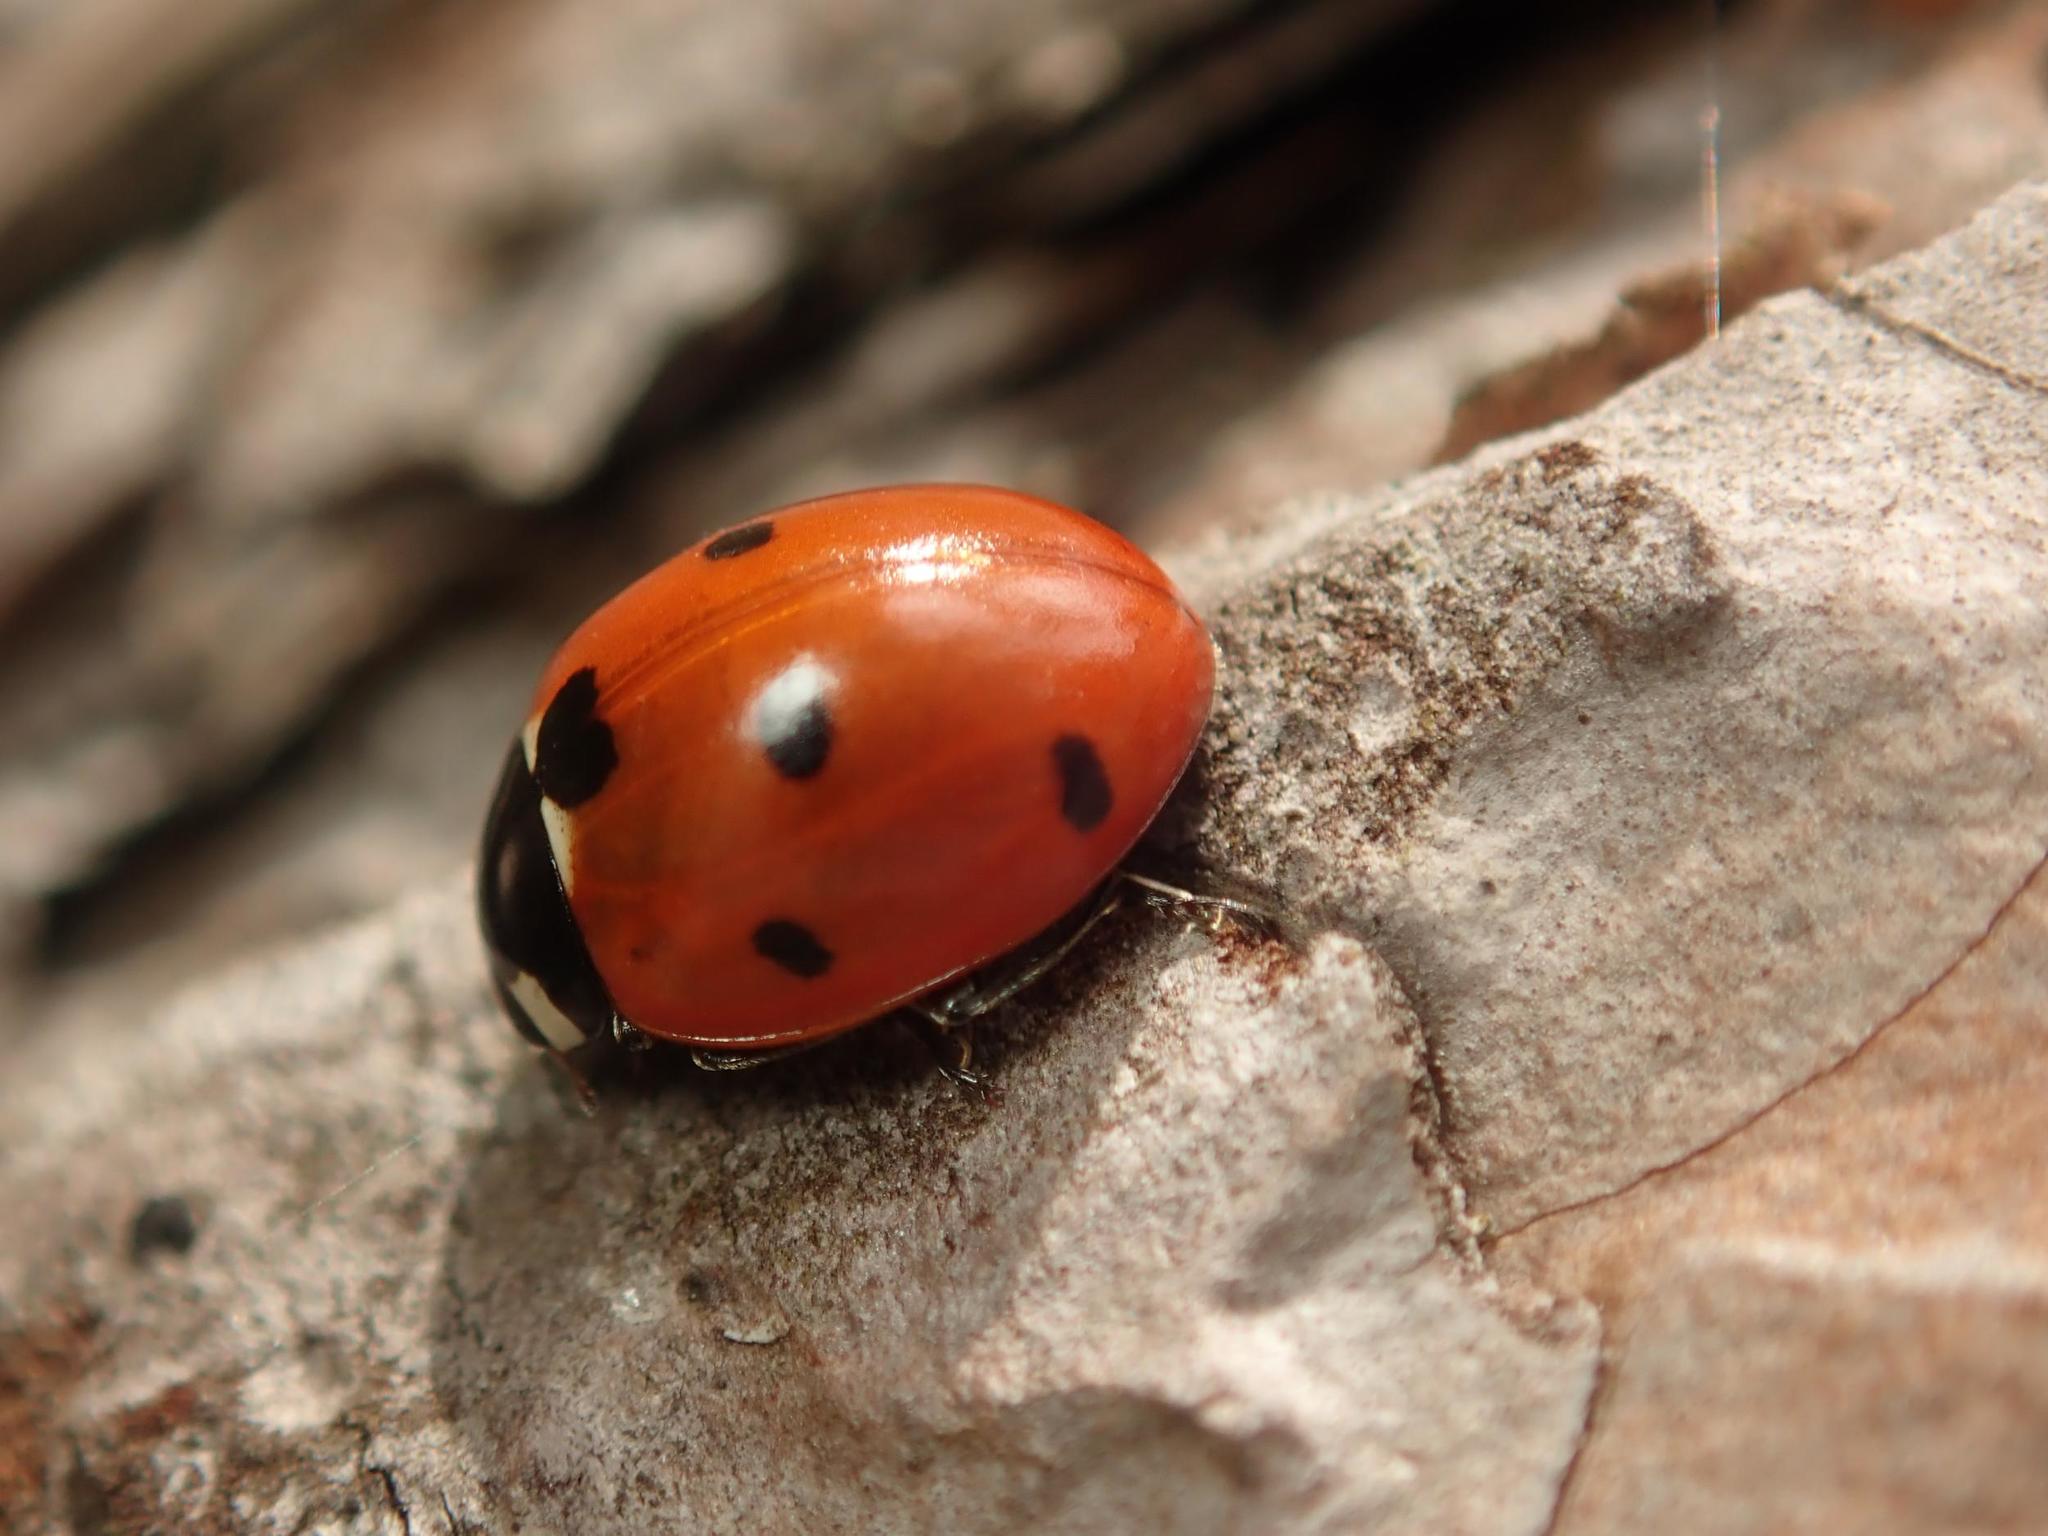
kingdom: Animalia
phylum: Arthropoda
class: Insecta
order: Coleoptera
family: Coccinellidae
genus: Coccinella
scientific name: Coccinella septempunctata
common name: Sevenspotted lady beetle
